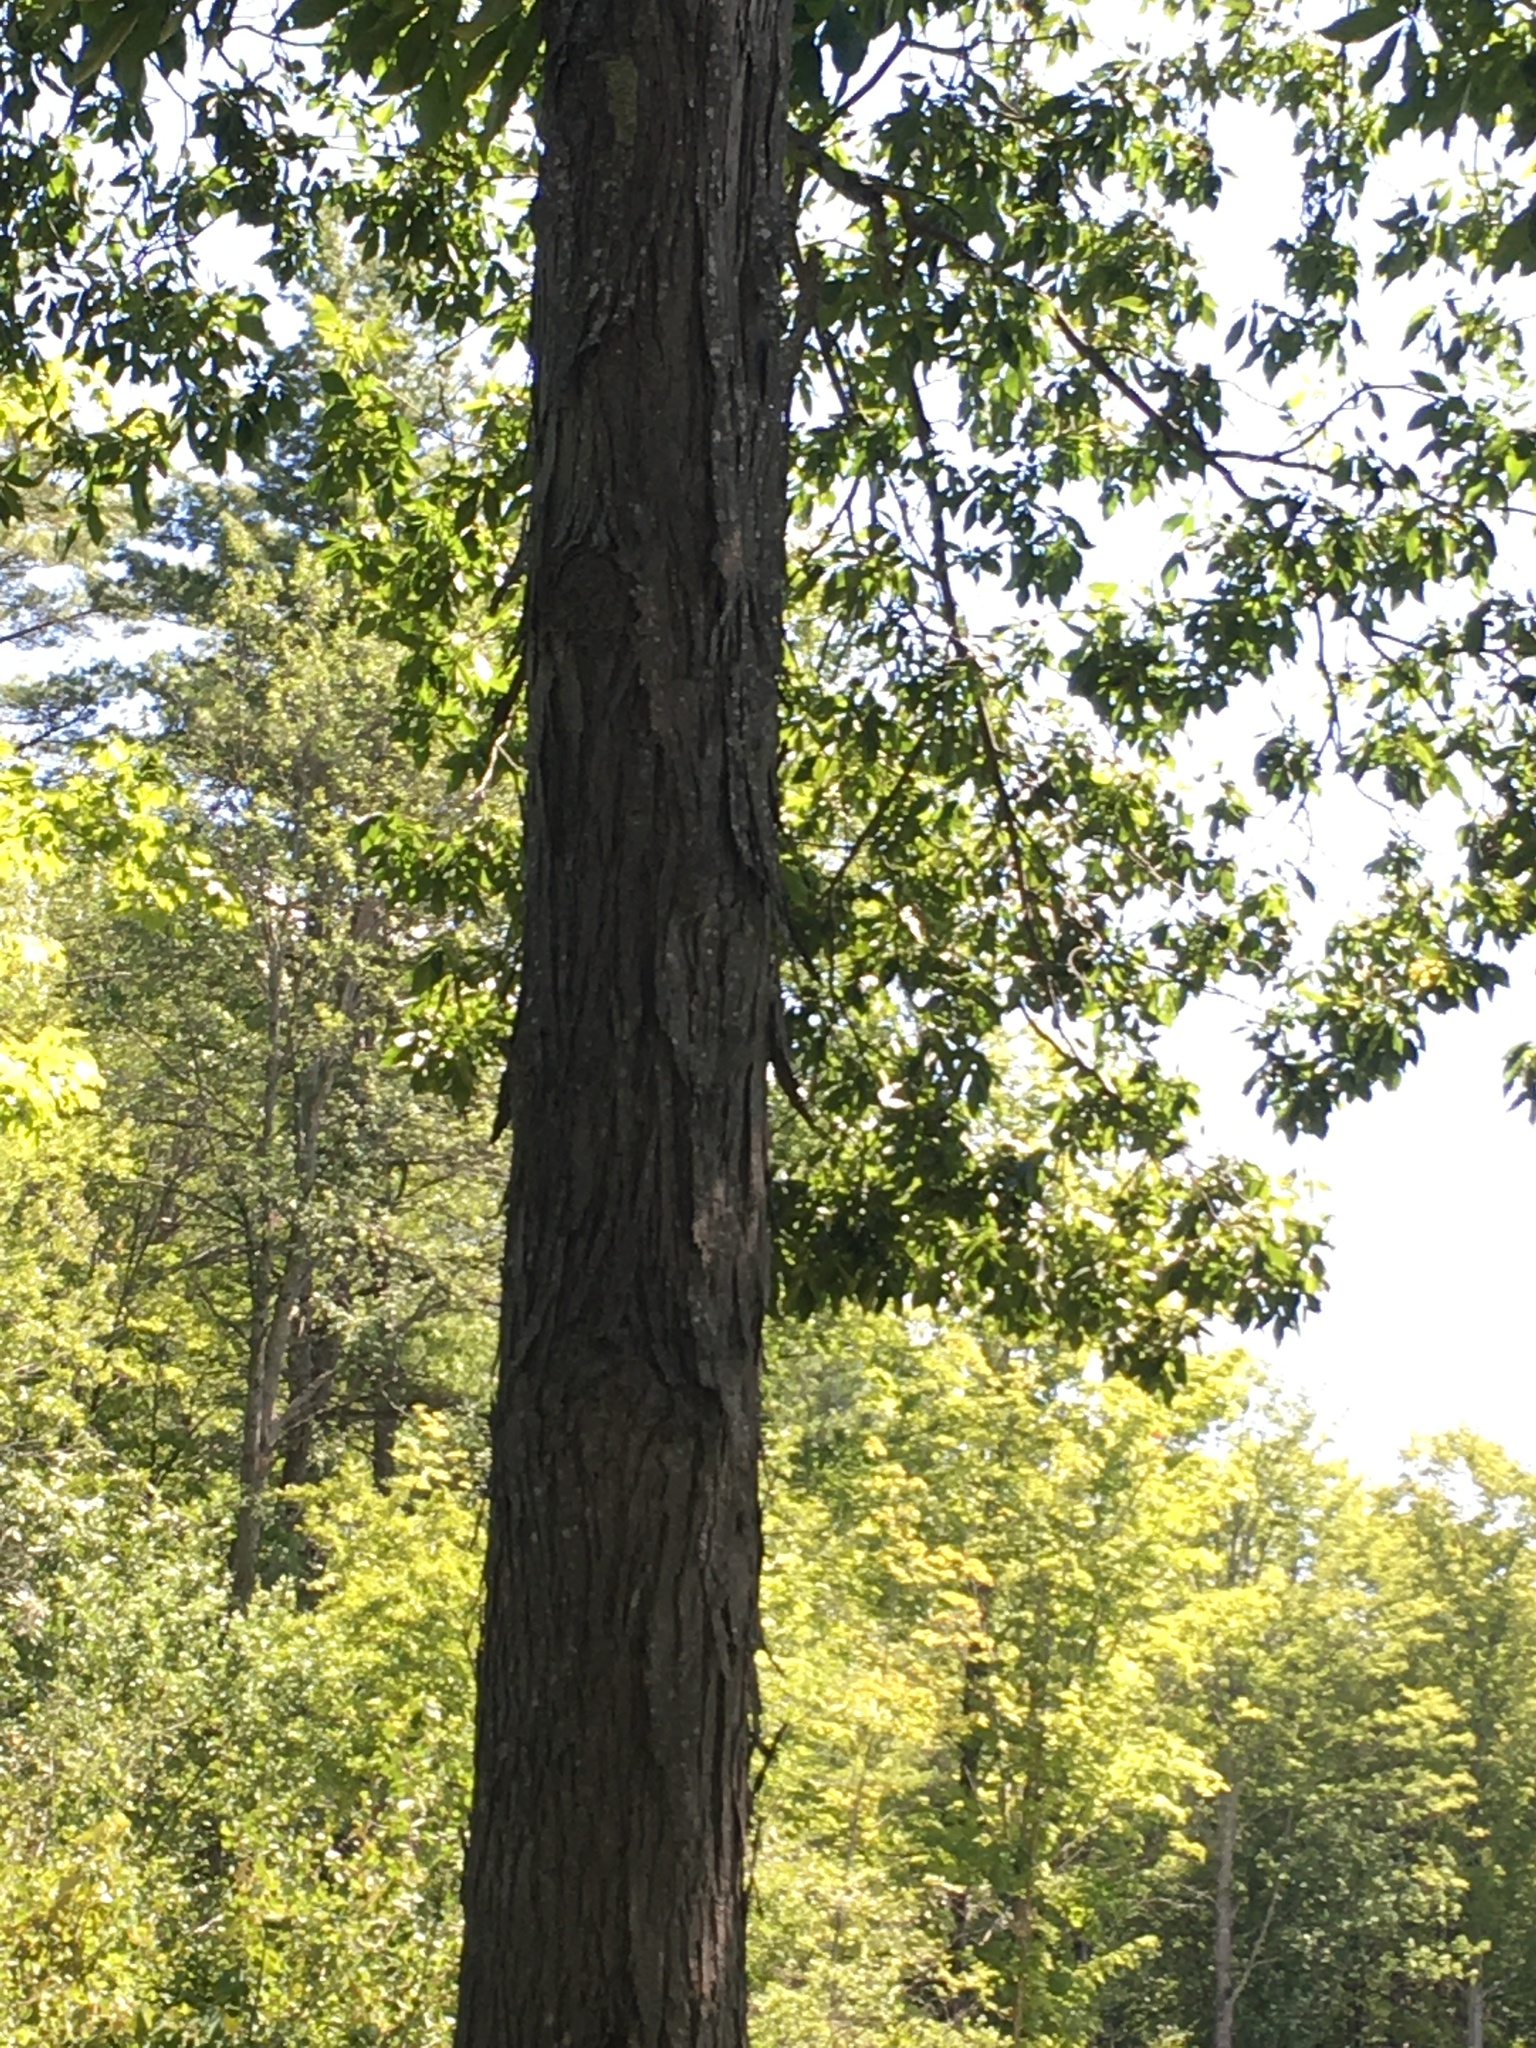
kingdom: Plantae
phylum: Tracheophyta
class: Magnoliopsida
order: Fagales
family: Juglandaceae
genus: Carya
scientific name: Carya ovata
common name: Shagbark hickory
